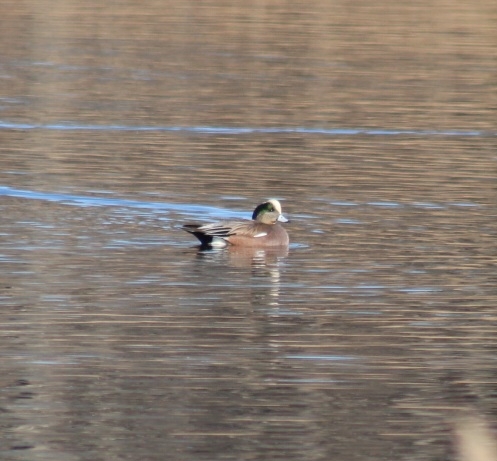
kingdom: Animalia
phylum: Chordata
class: Aves
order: Anseriformes
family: Anatidae
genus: Mareca
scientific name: Mareca americana
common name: American wigeon
